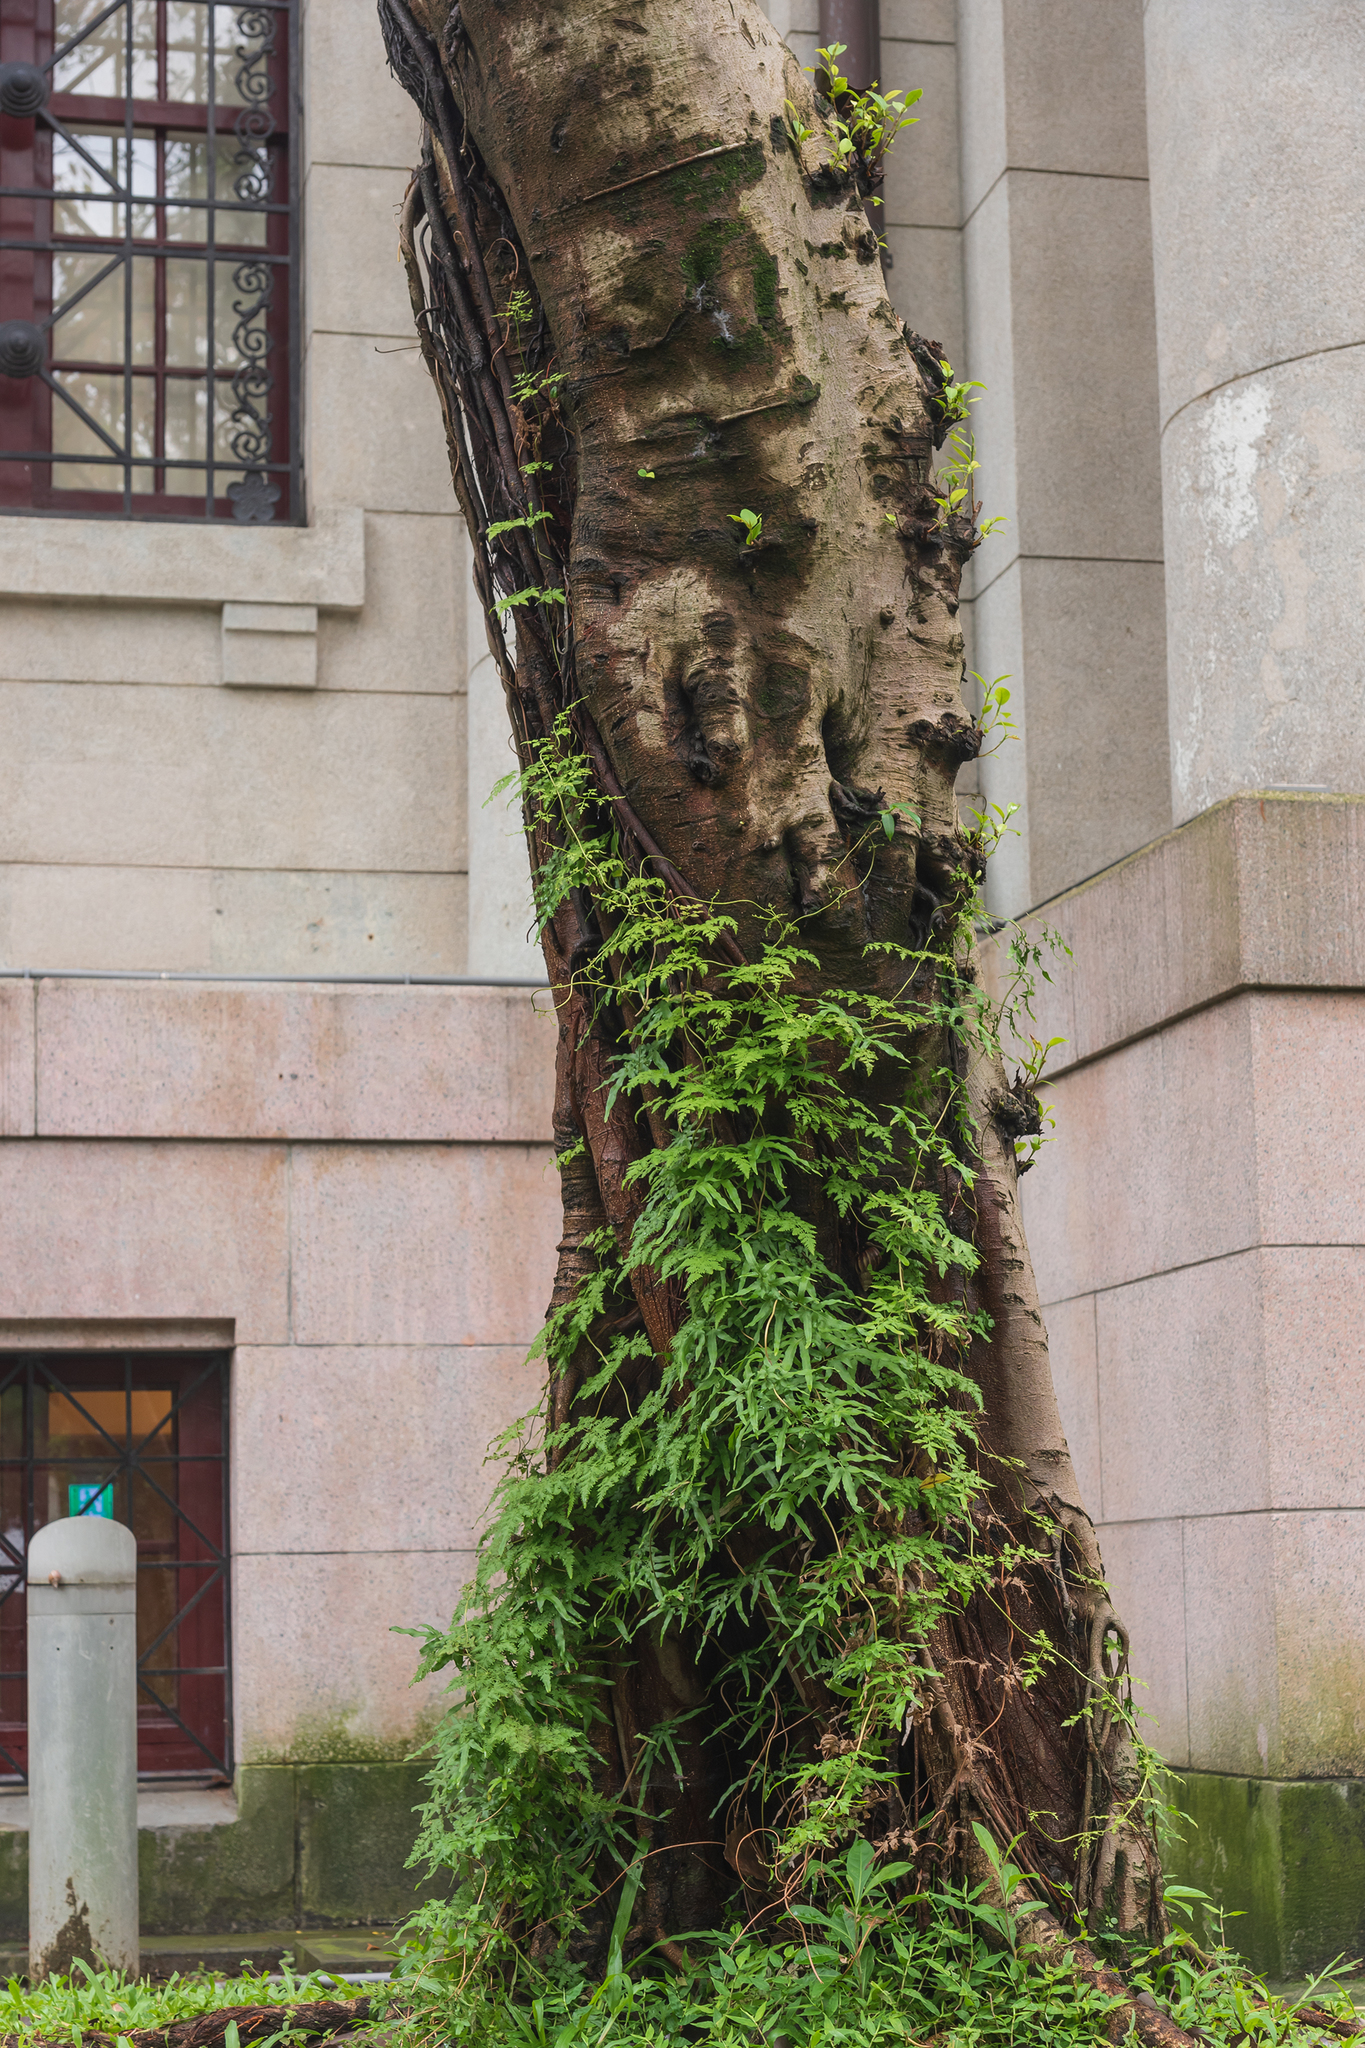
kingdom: Plantae
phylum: Tracheophyta
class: Polypodiopsida
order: Schizaeales
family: Lygodiaceae
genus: Lygodium
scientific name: Lygodium japonicum
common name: Japanese climbing fern
